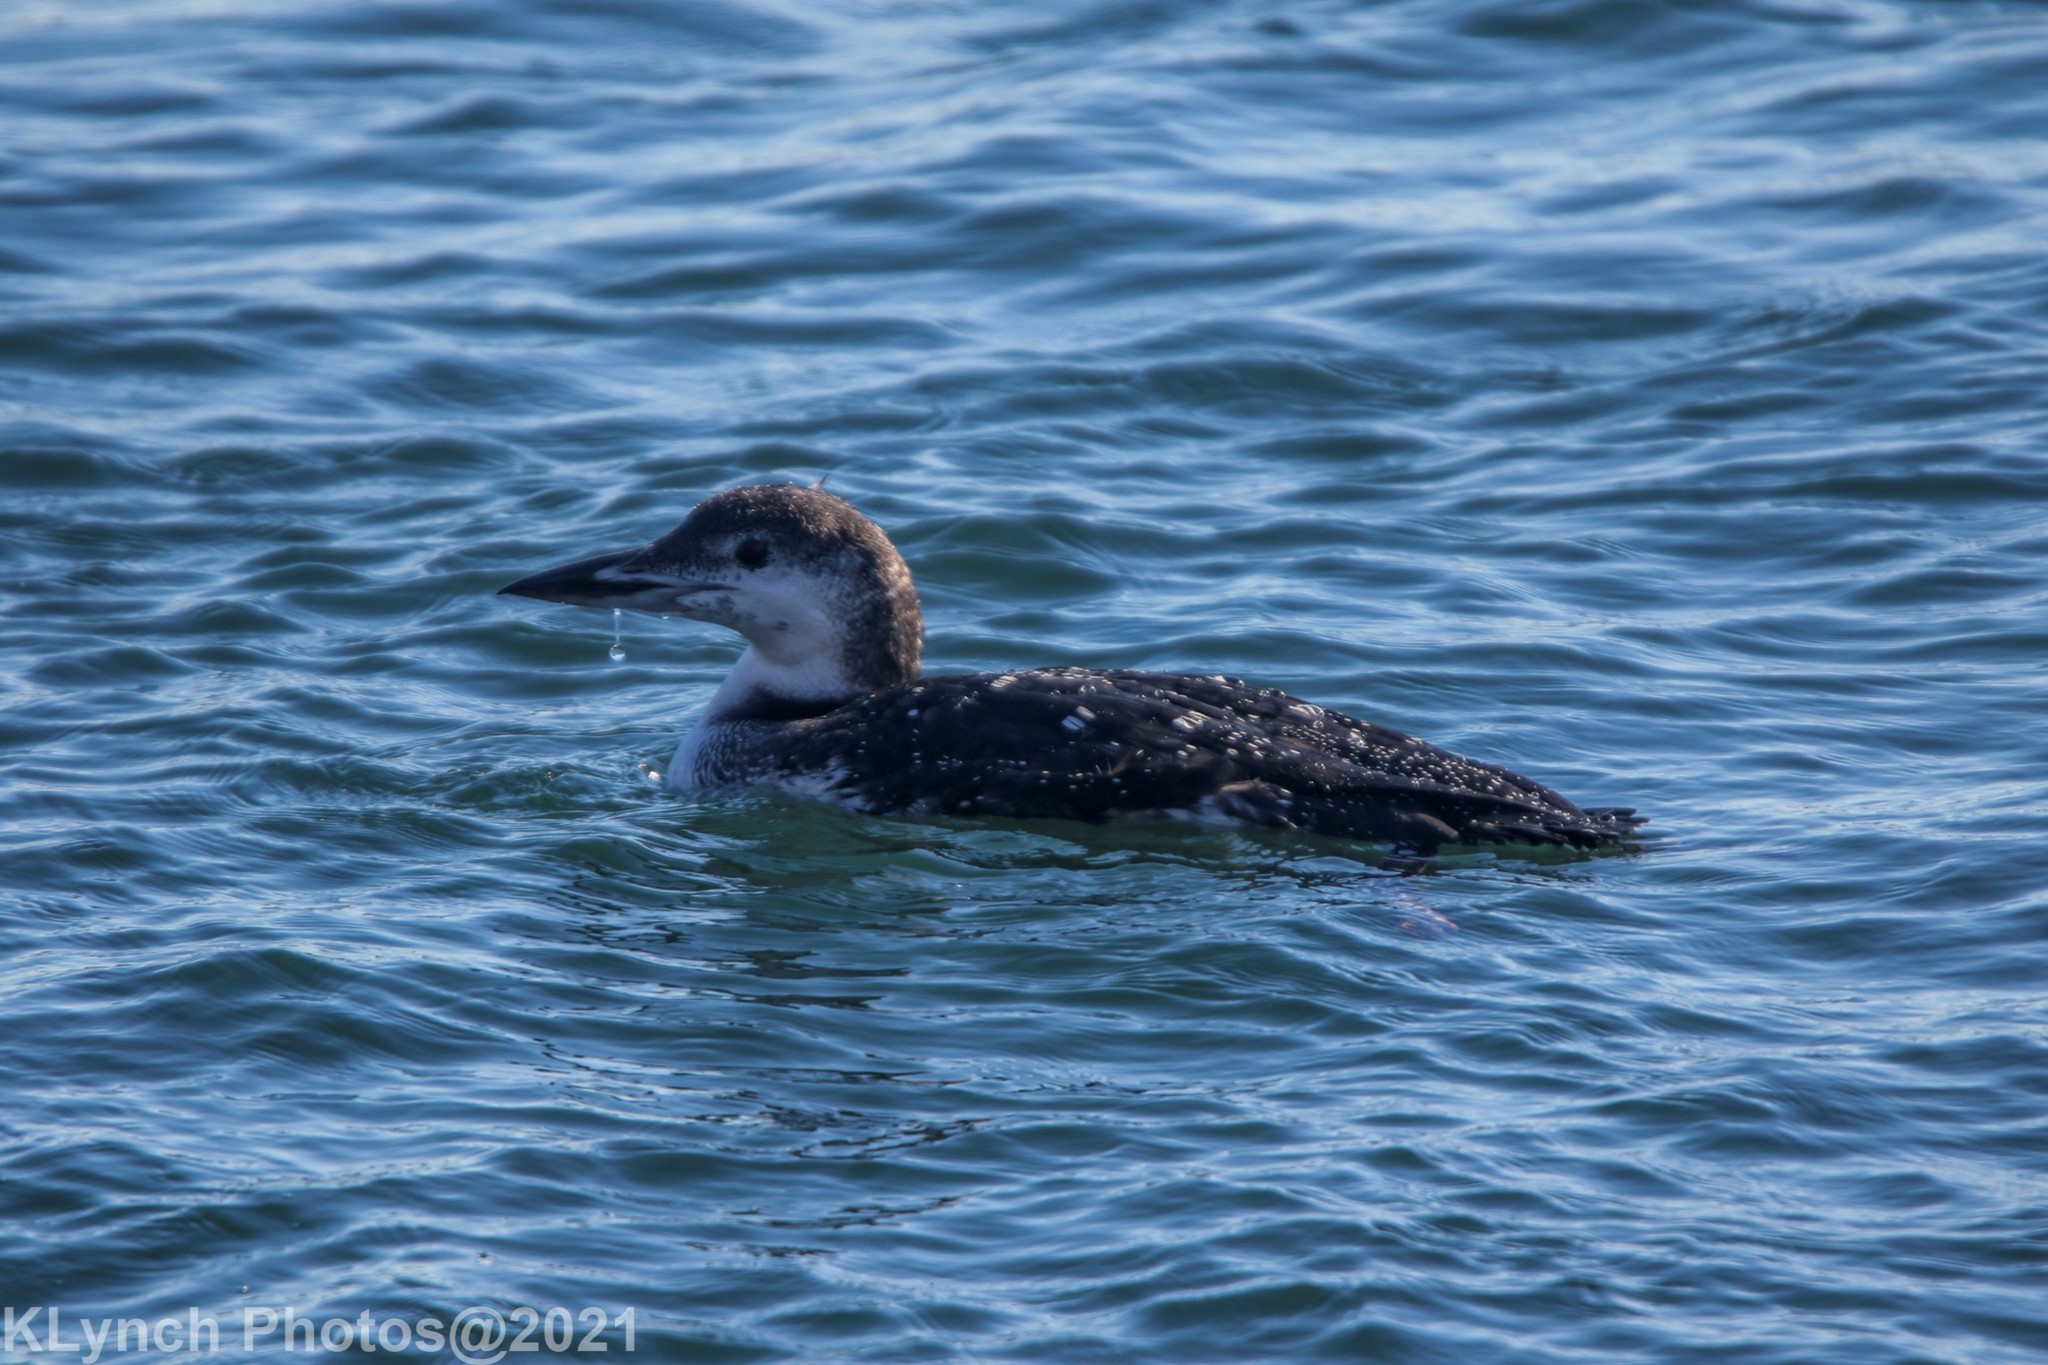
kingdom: Animalia
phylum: Chordata
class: Aves
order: Gaviiformes
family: Gaviidae
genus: Gavia
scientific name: Gavia immer
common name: Common loon
